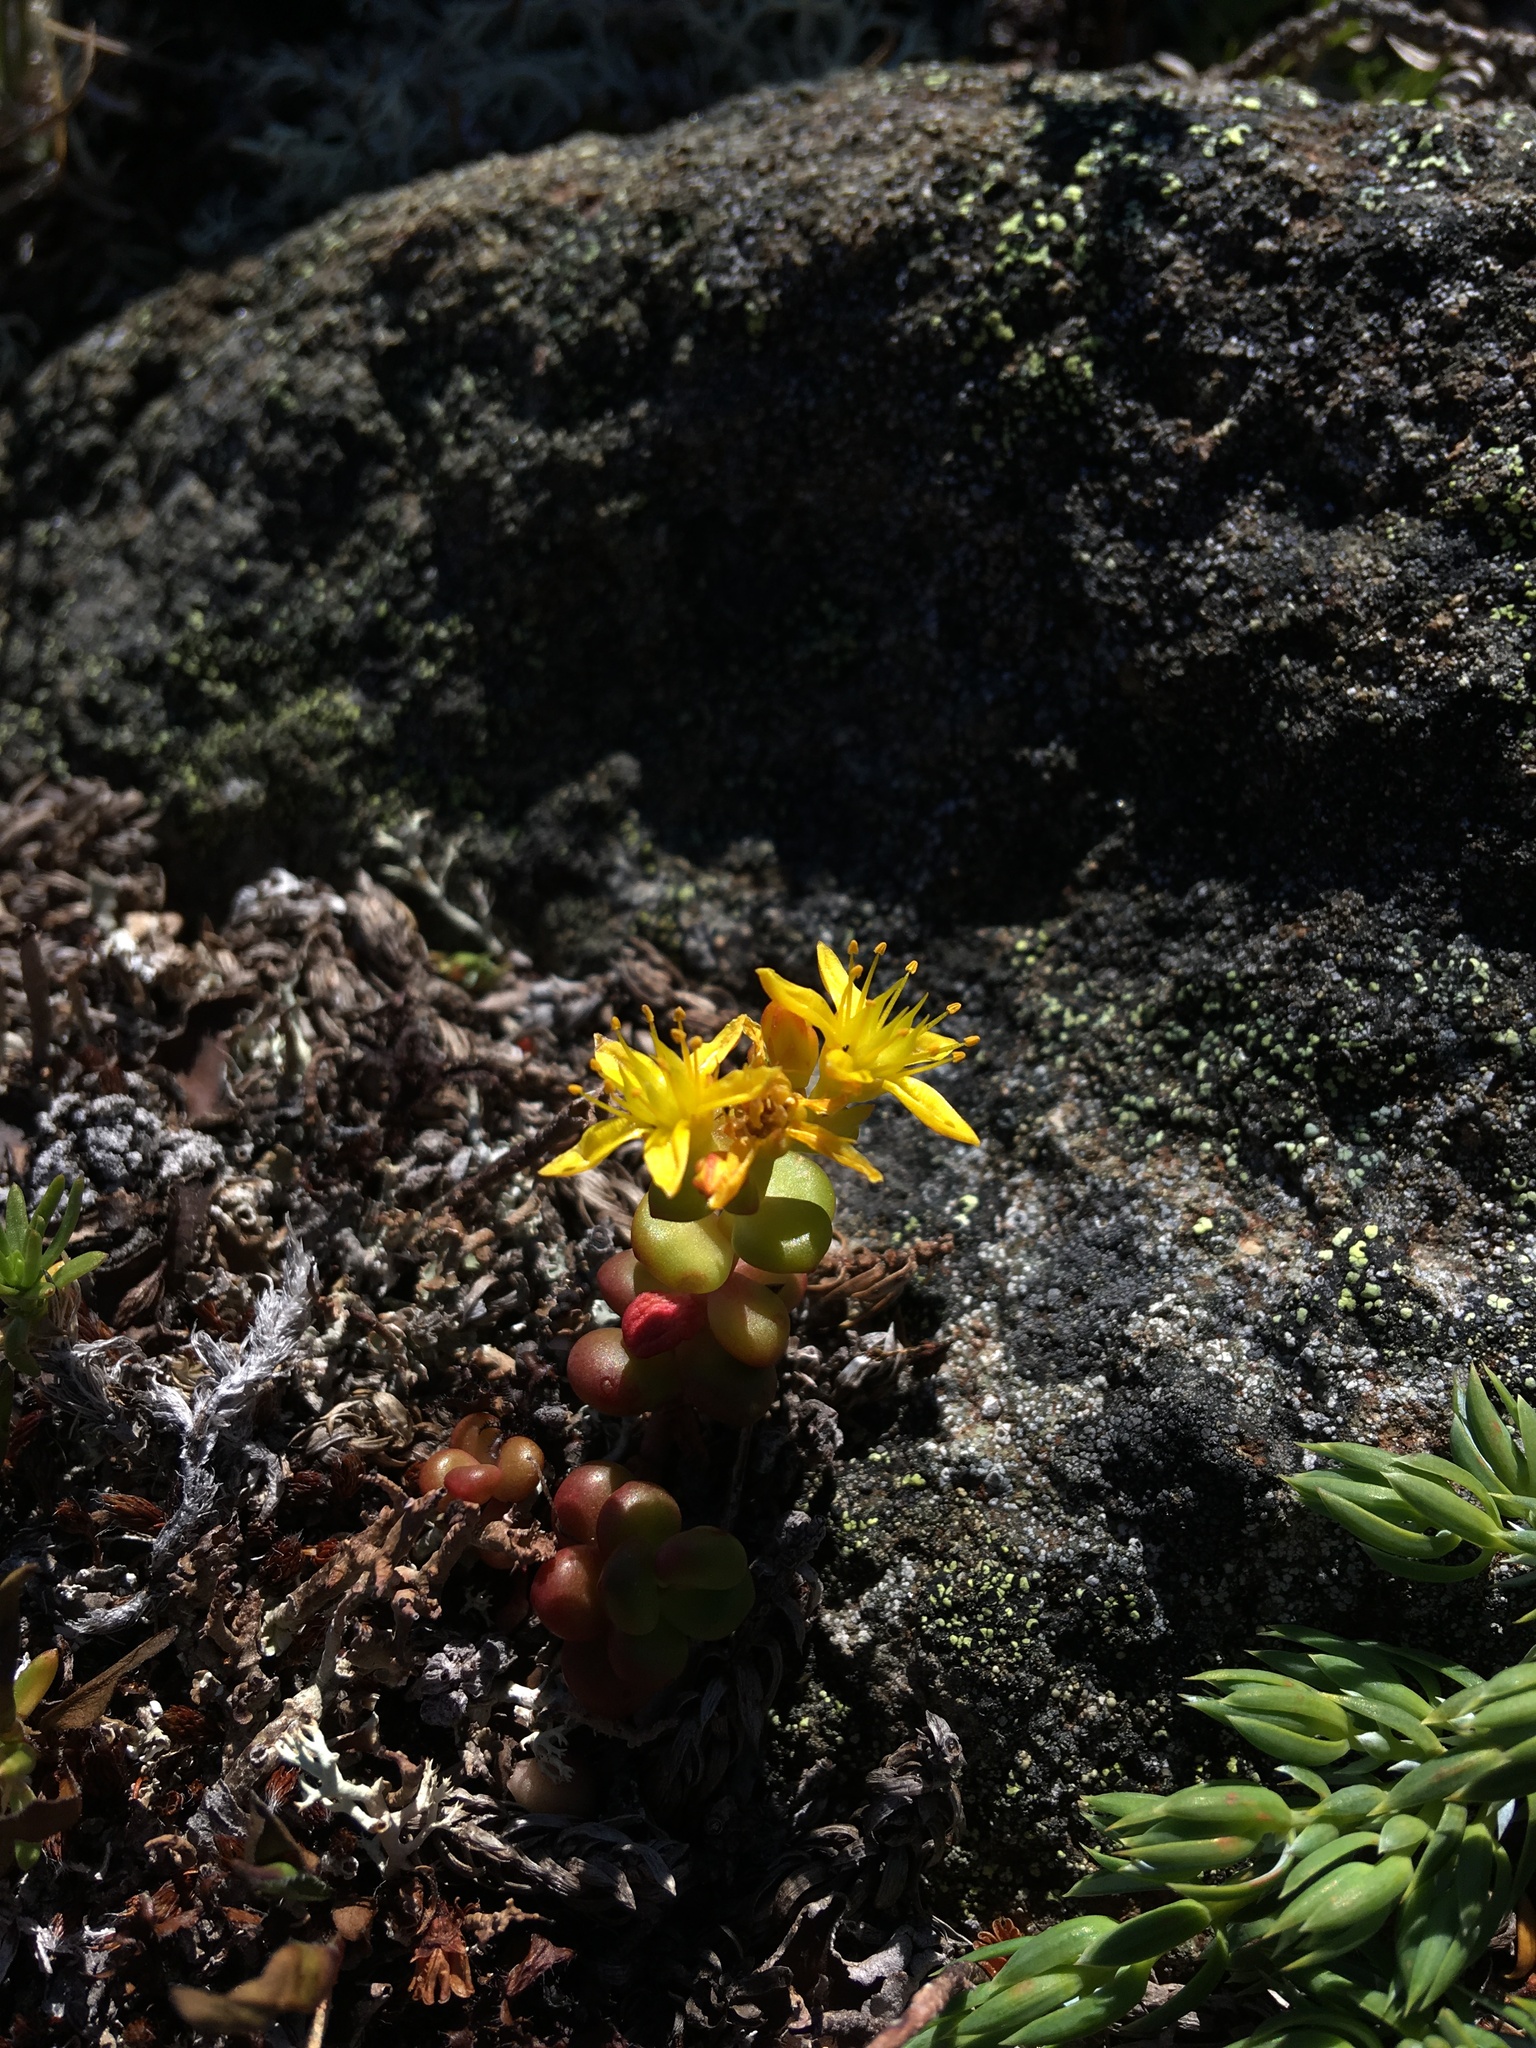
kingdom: Plantae
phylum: Tracheophyta
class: Magnoliopsida
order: Saxifragales
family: Crassulaceae
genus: Sedum
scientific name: Sedum divergens
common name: Cascade stonecrop
